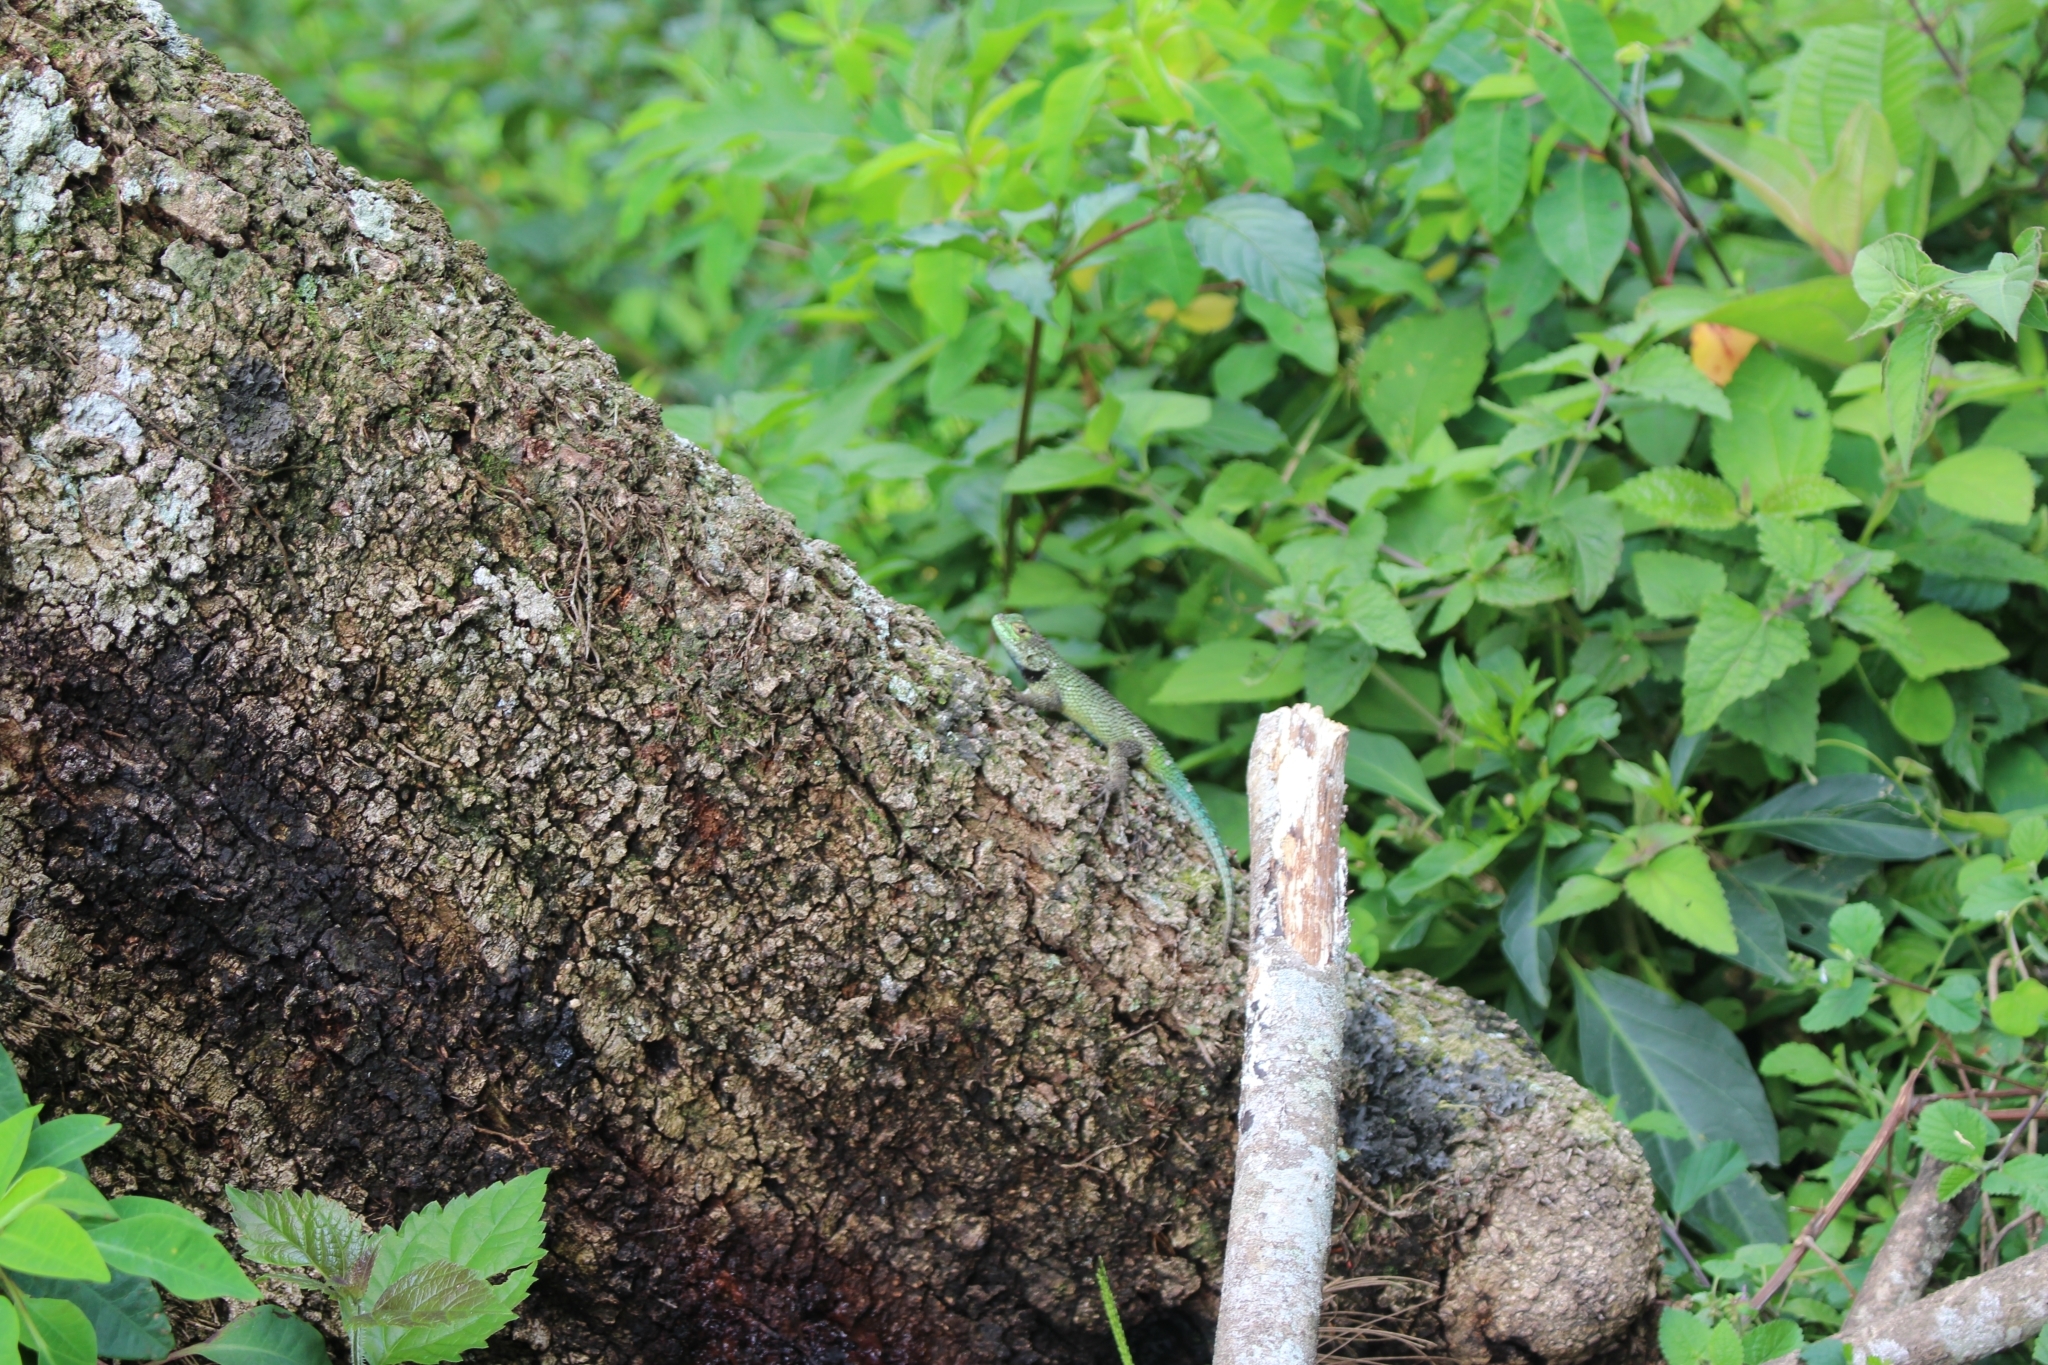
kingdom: Animalia
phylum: Chordata
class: Squamata
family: Phrynosomatidae
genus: Sceloporus
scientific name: Sceloporus malachiticus
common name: Green spiny lizard
